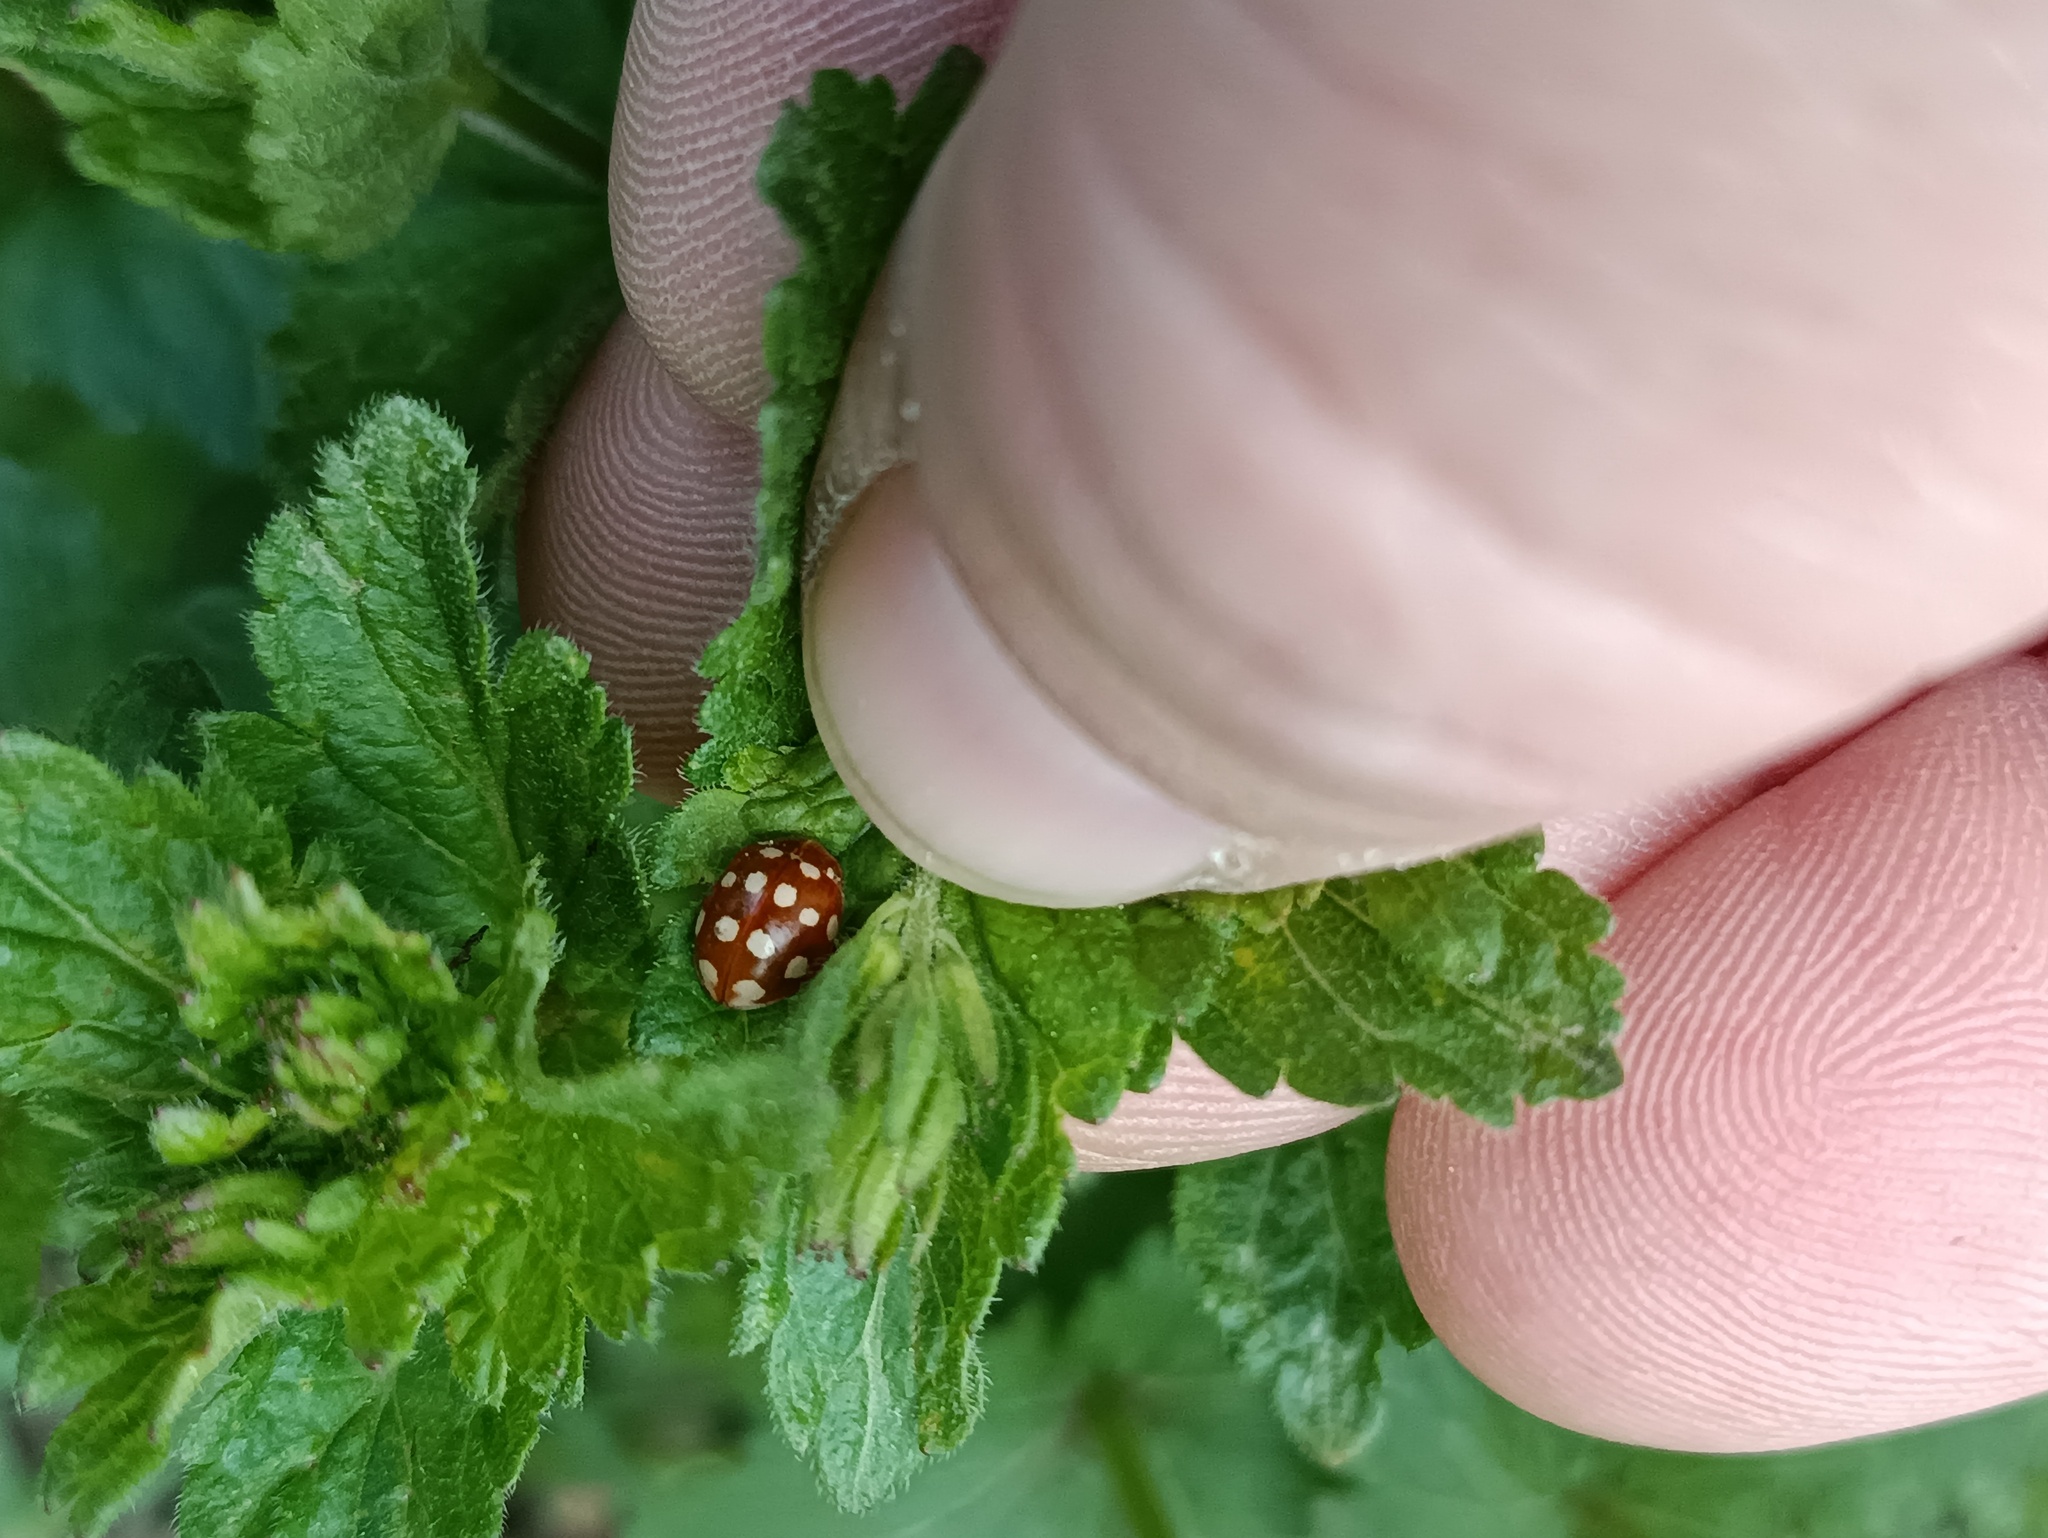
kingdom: Animalia
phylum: Arthropoda
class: Insecta
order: Coleoptera
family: Coccinellidae
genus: Calvia
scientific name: Calvia quatuordecimguttata
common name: Cream-spot ladybird
